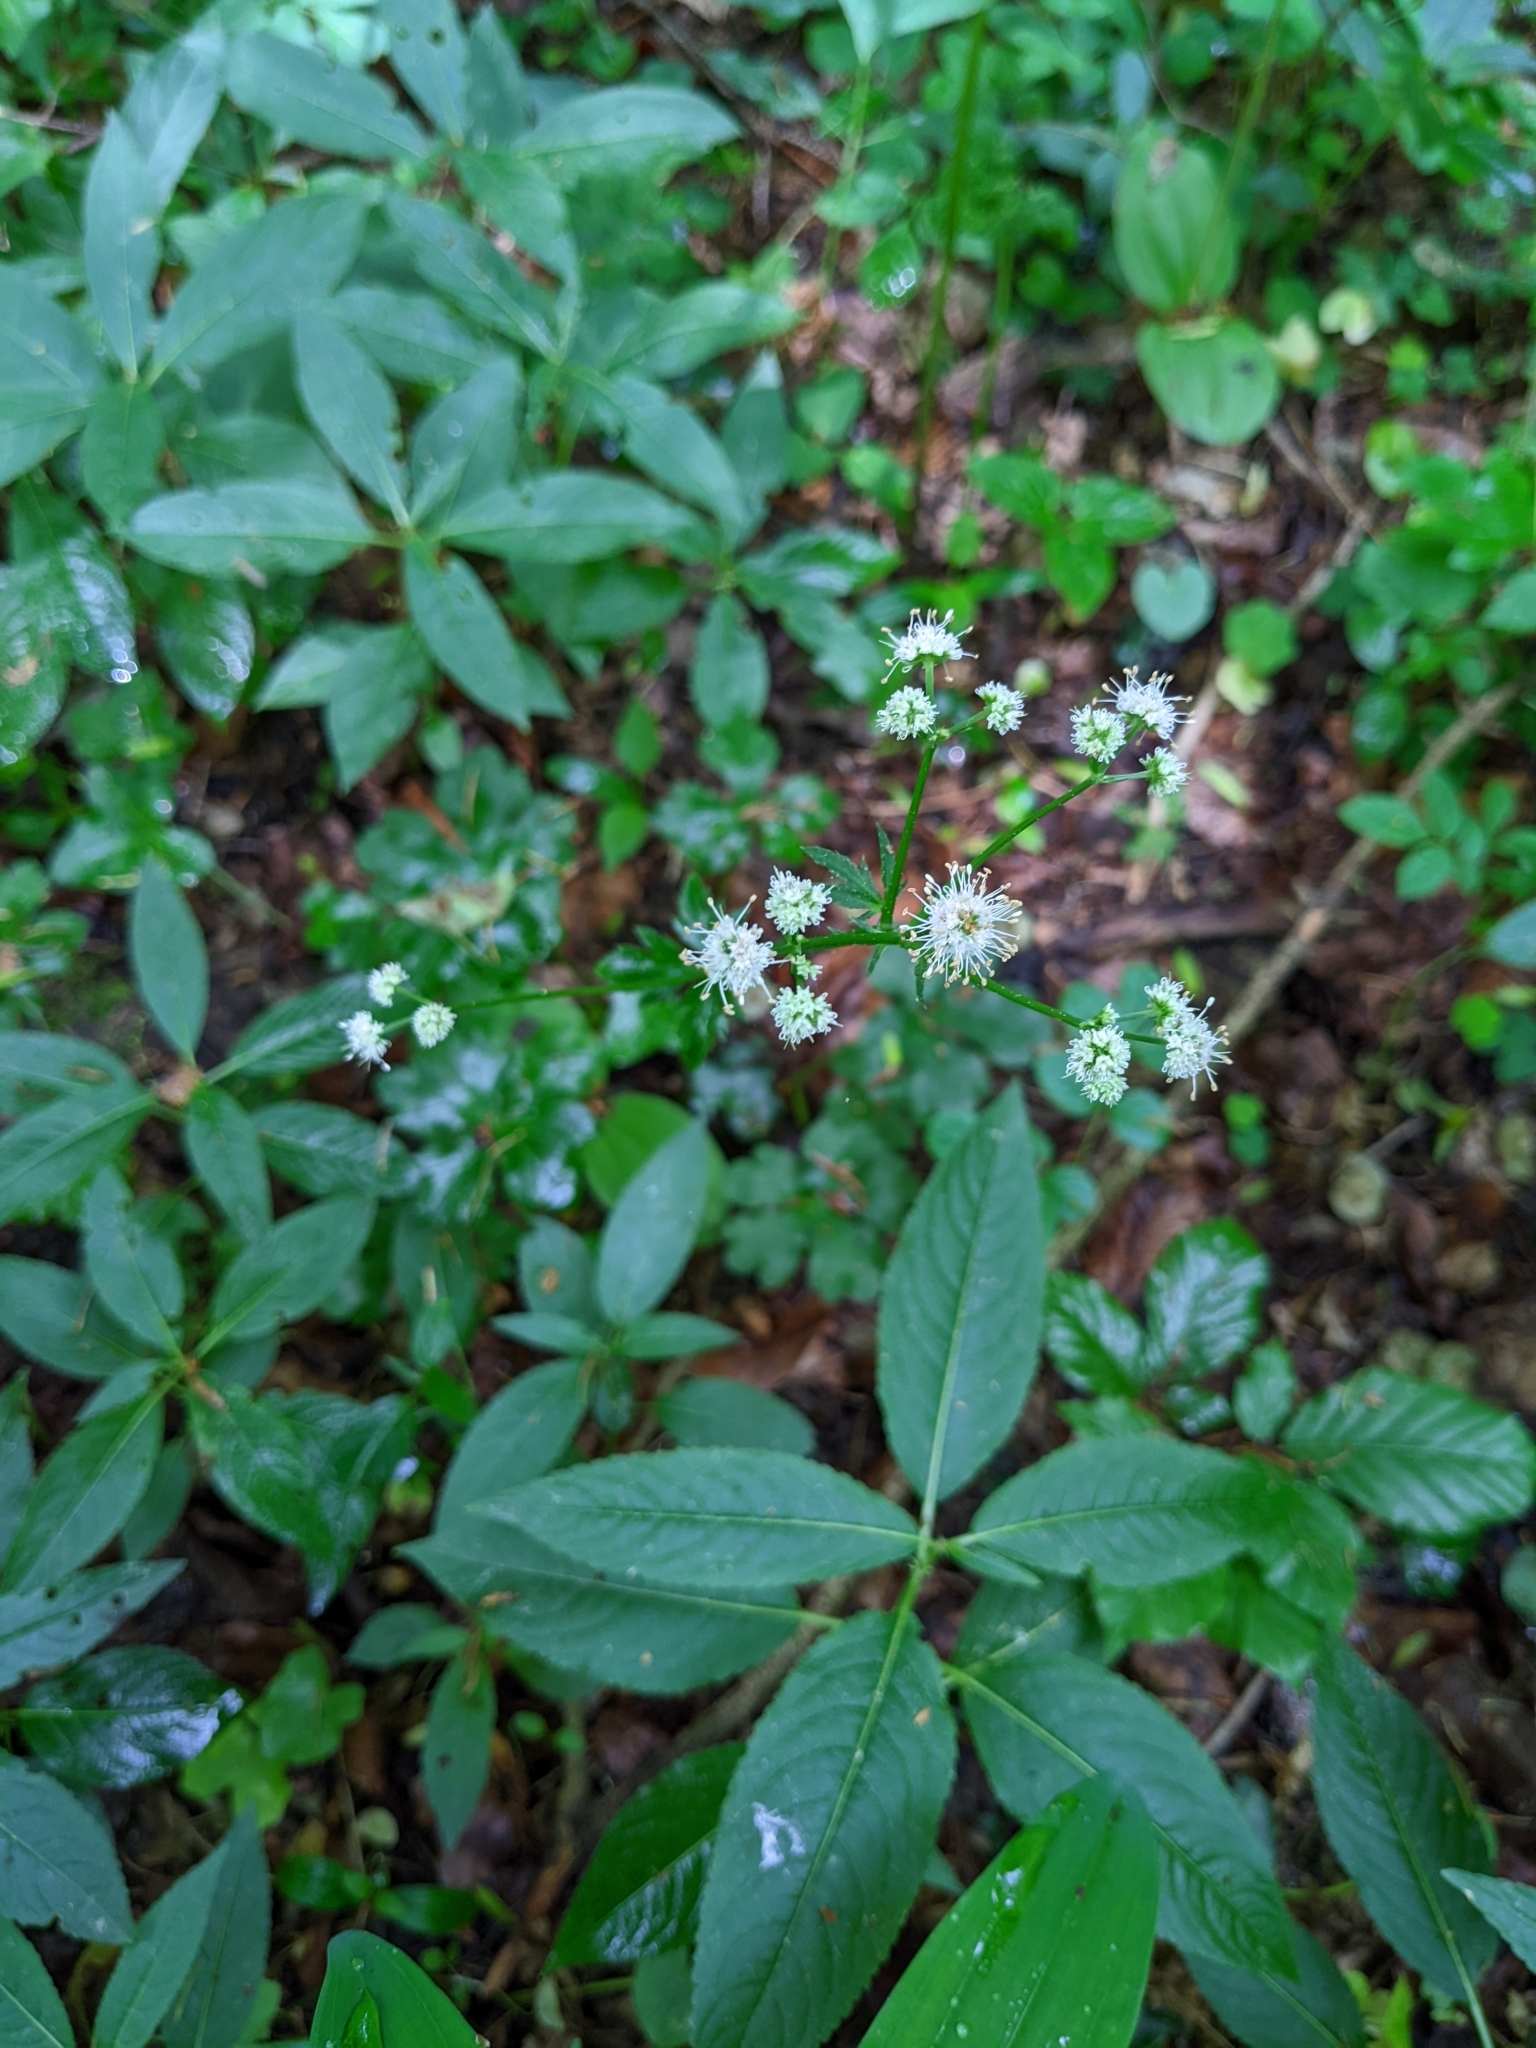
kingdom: Plantae
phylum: Tracheophyta
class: Magnoliopsida
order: Apiales
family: Apiaceae
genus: Sanicula
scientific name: Sanicula europaea
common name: Sanicle
